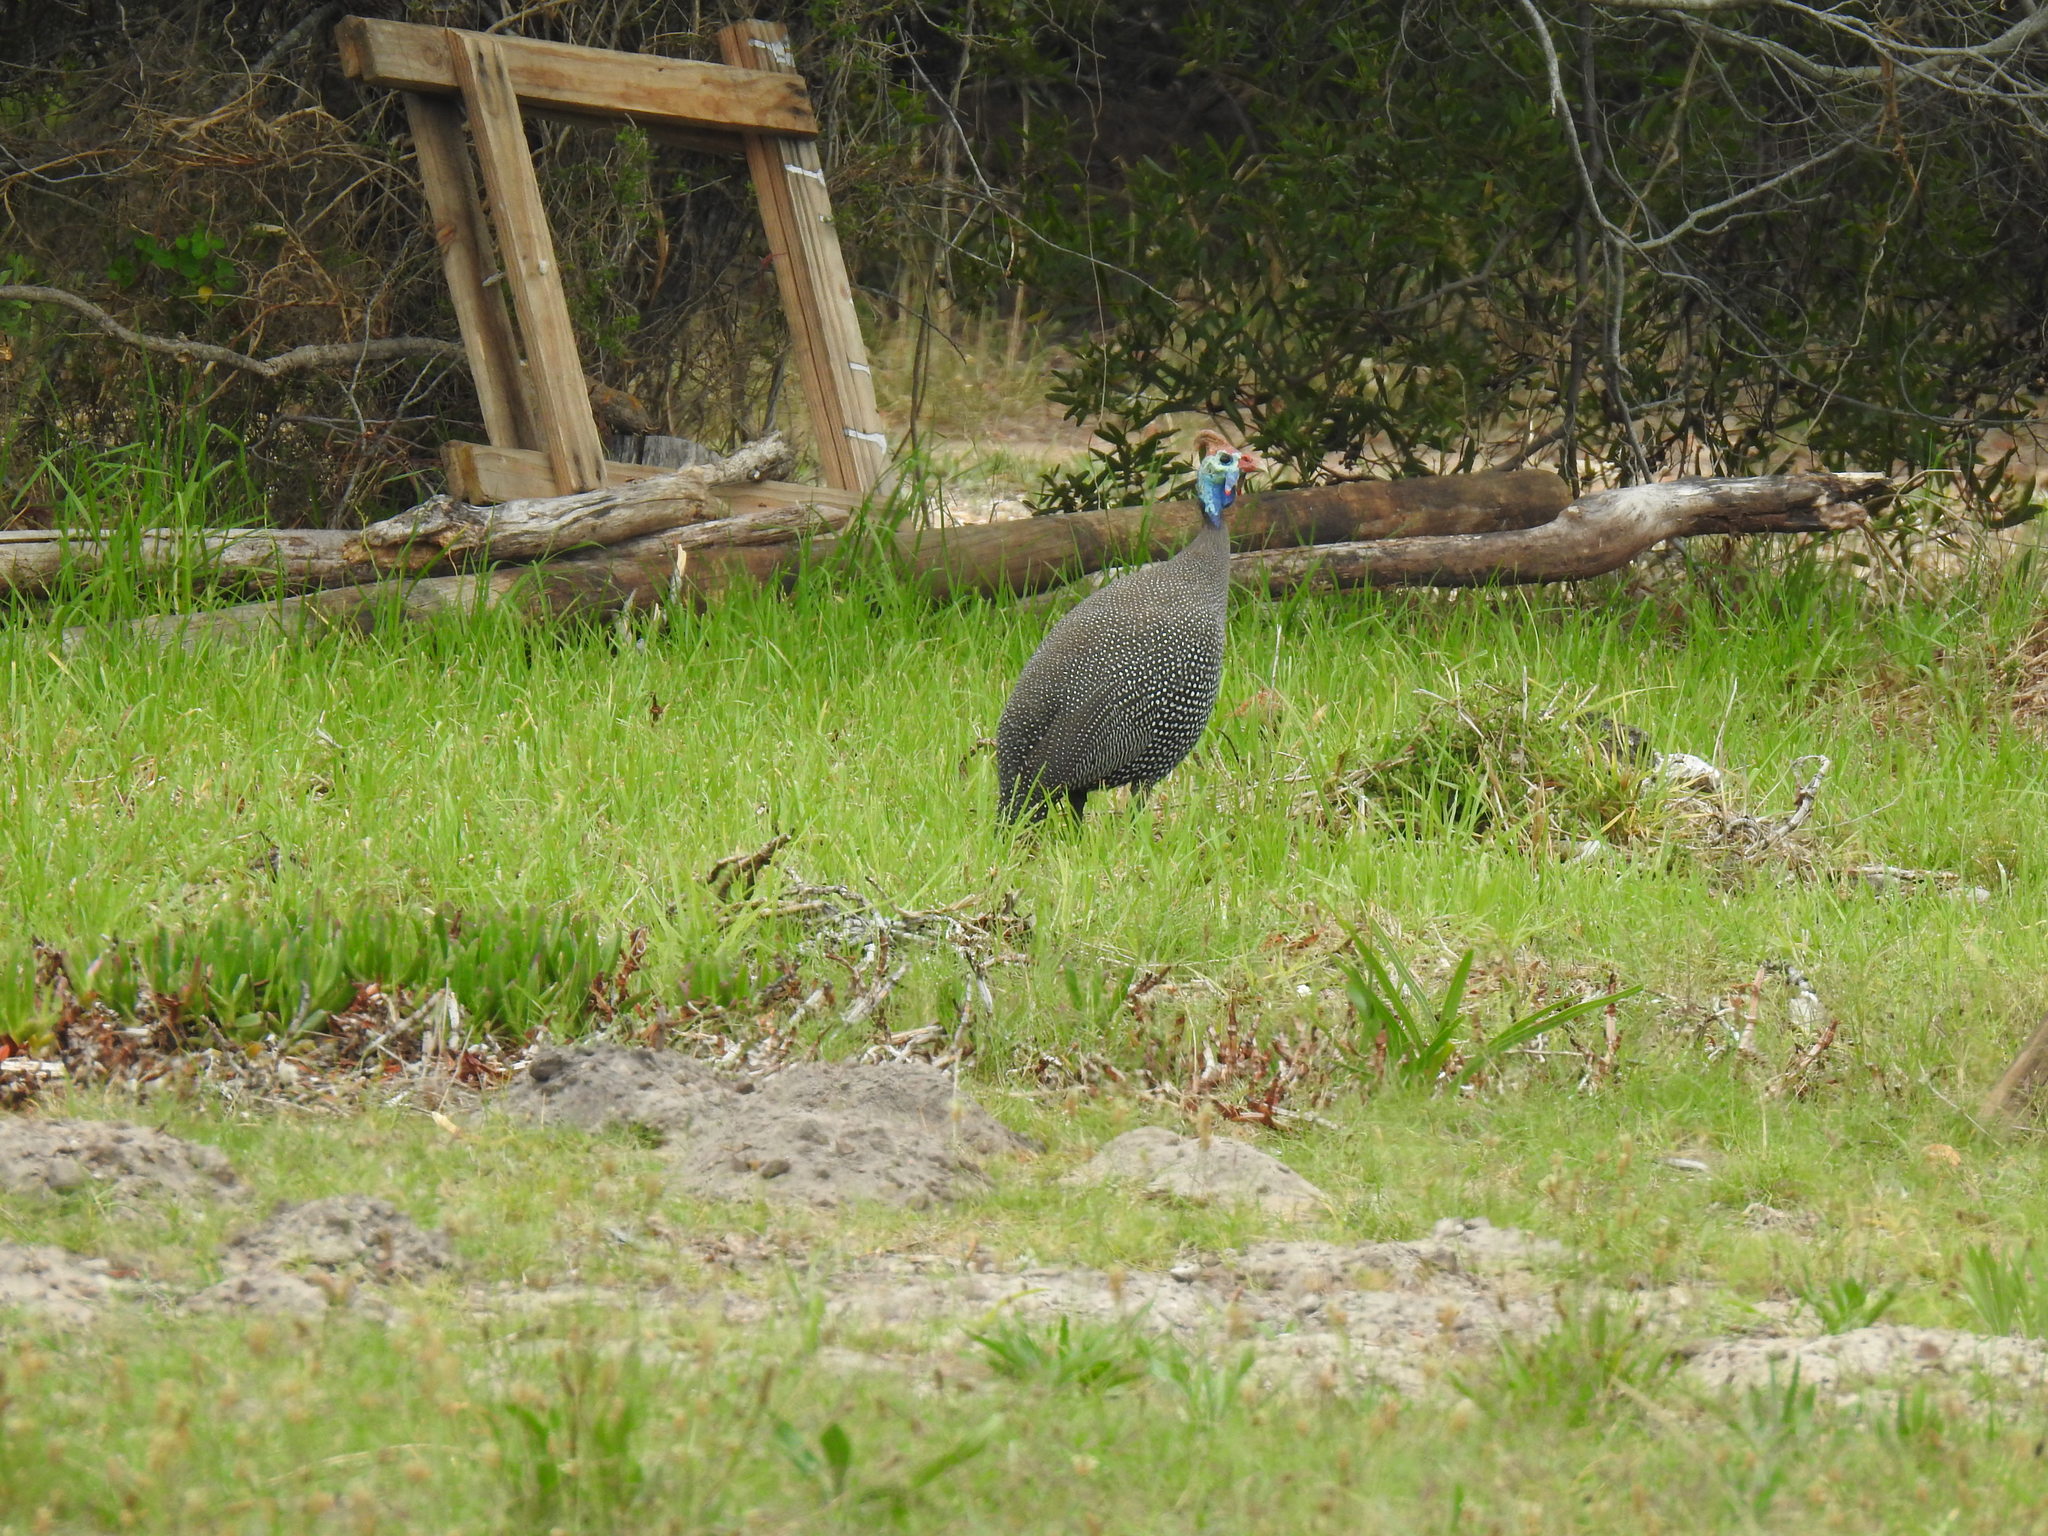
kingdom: Animalia
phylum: Chordata
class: Aves
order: Galliformes
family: Numididae
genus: Numida
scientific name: Numida meleagris
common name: Helmeted guineafowl
